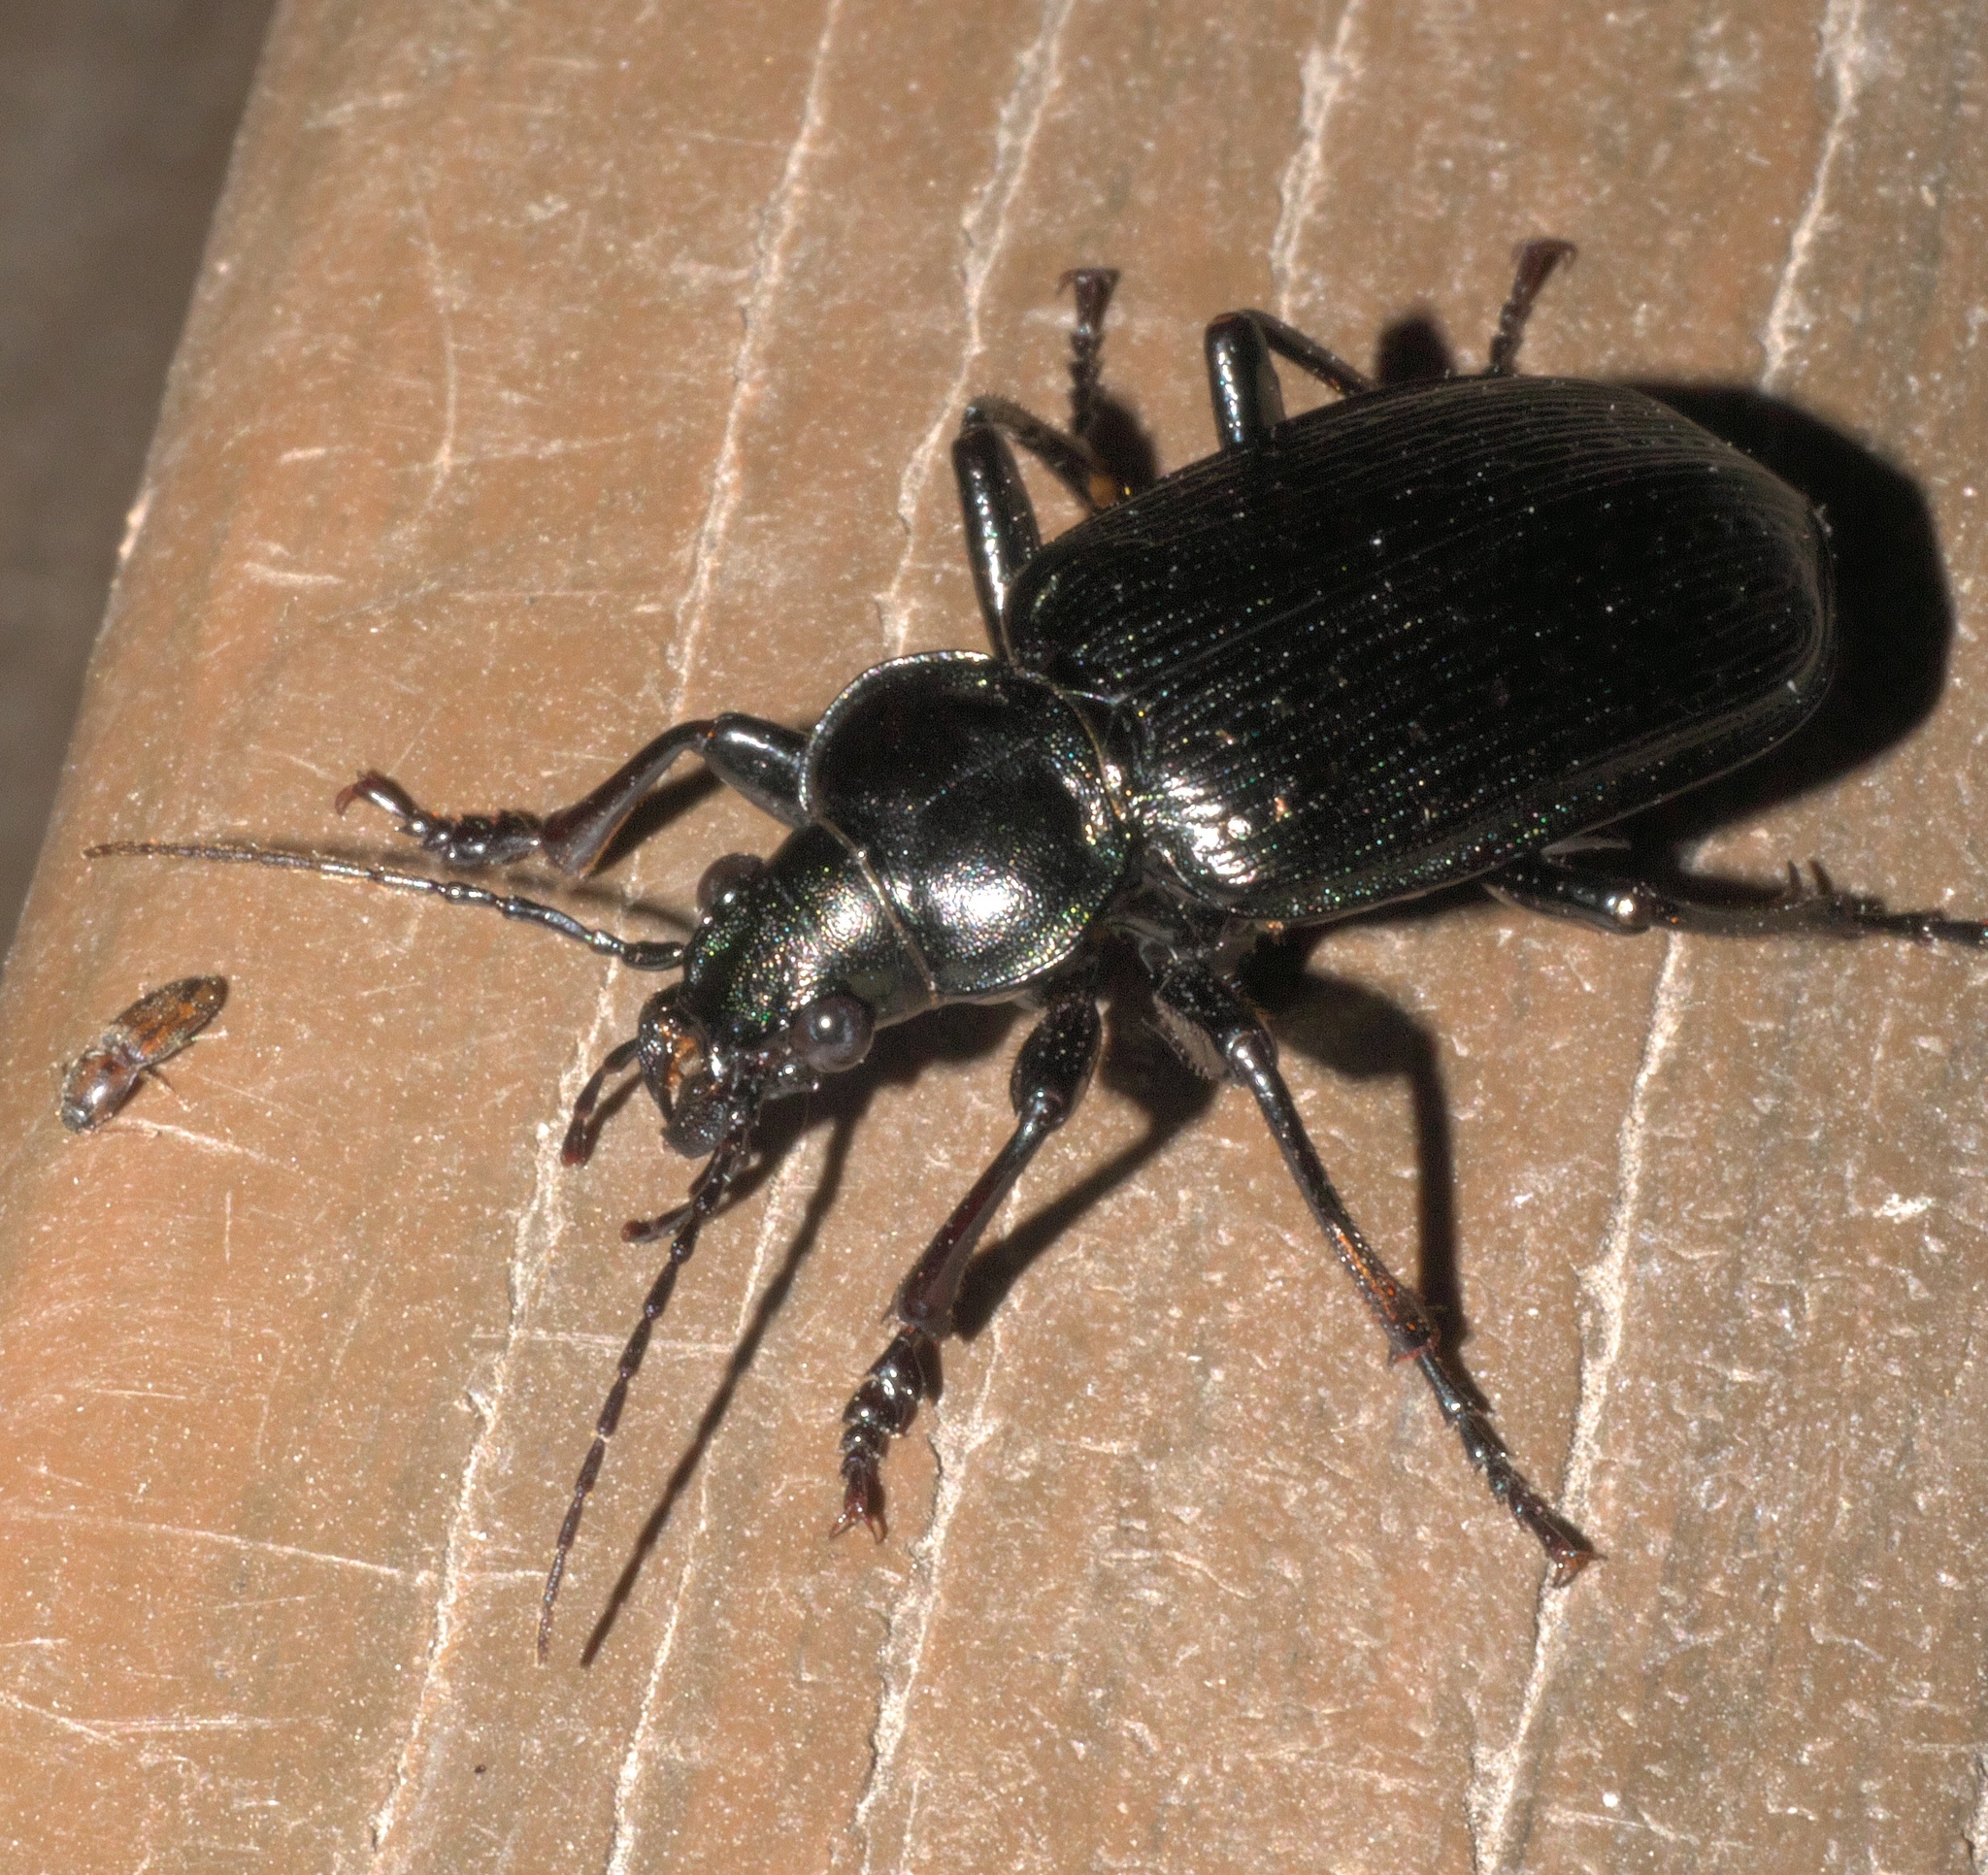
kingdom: Animalia
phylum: Arthropoda
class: Insecta
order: Coleoptera
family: Carabidae
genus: Calosoma
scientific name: Calosoma sayi
